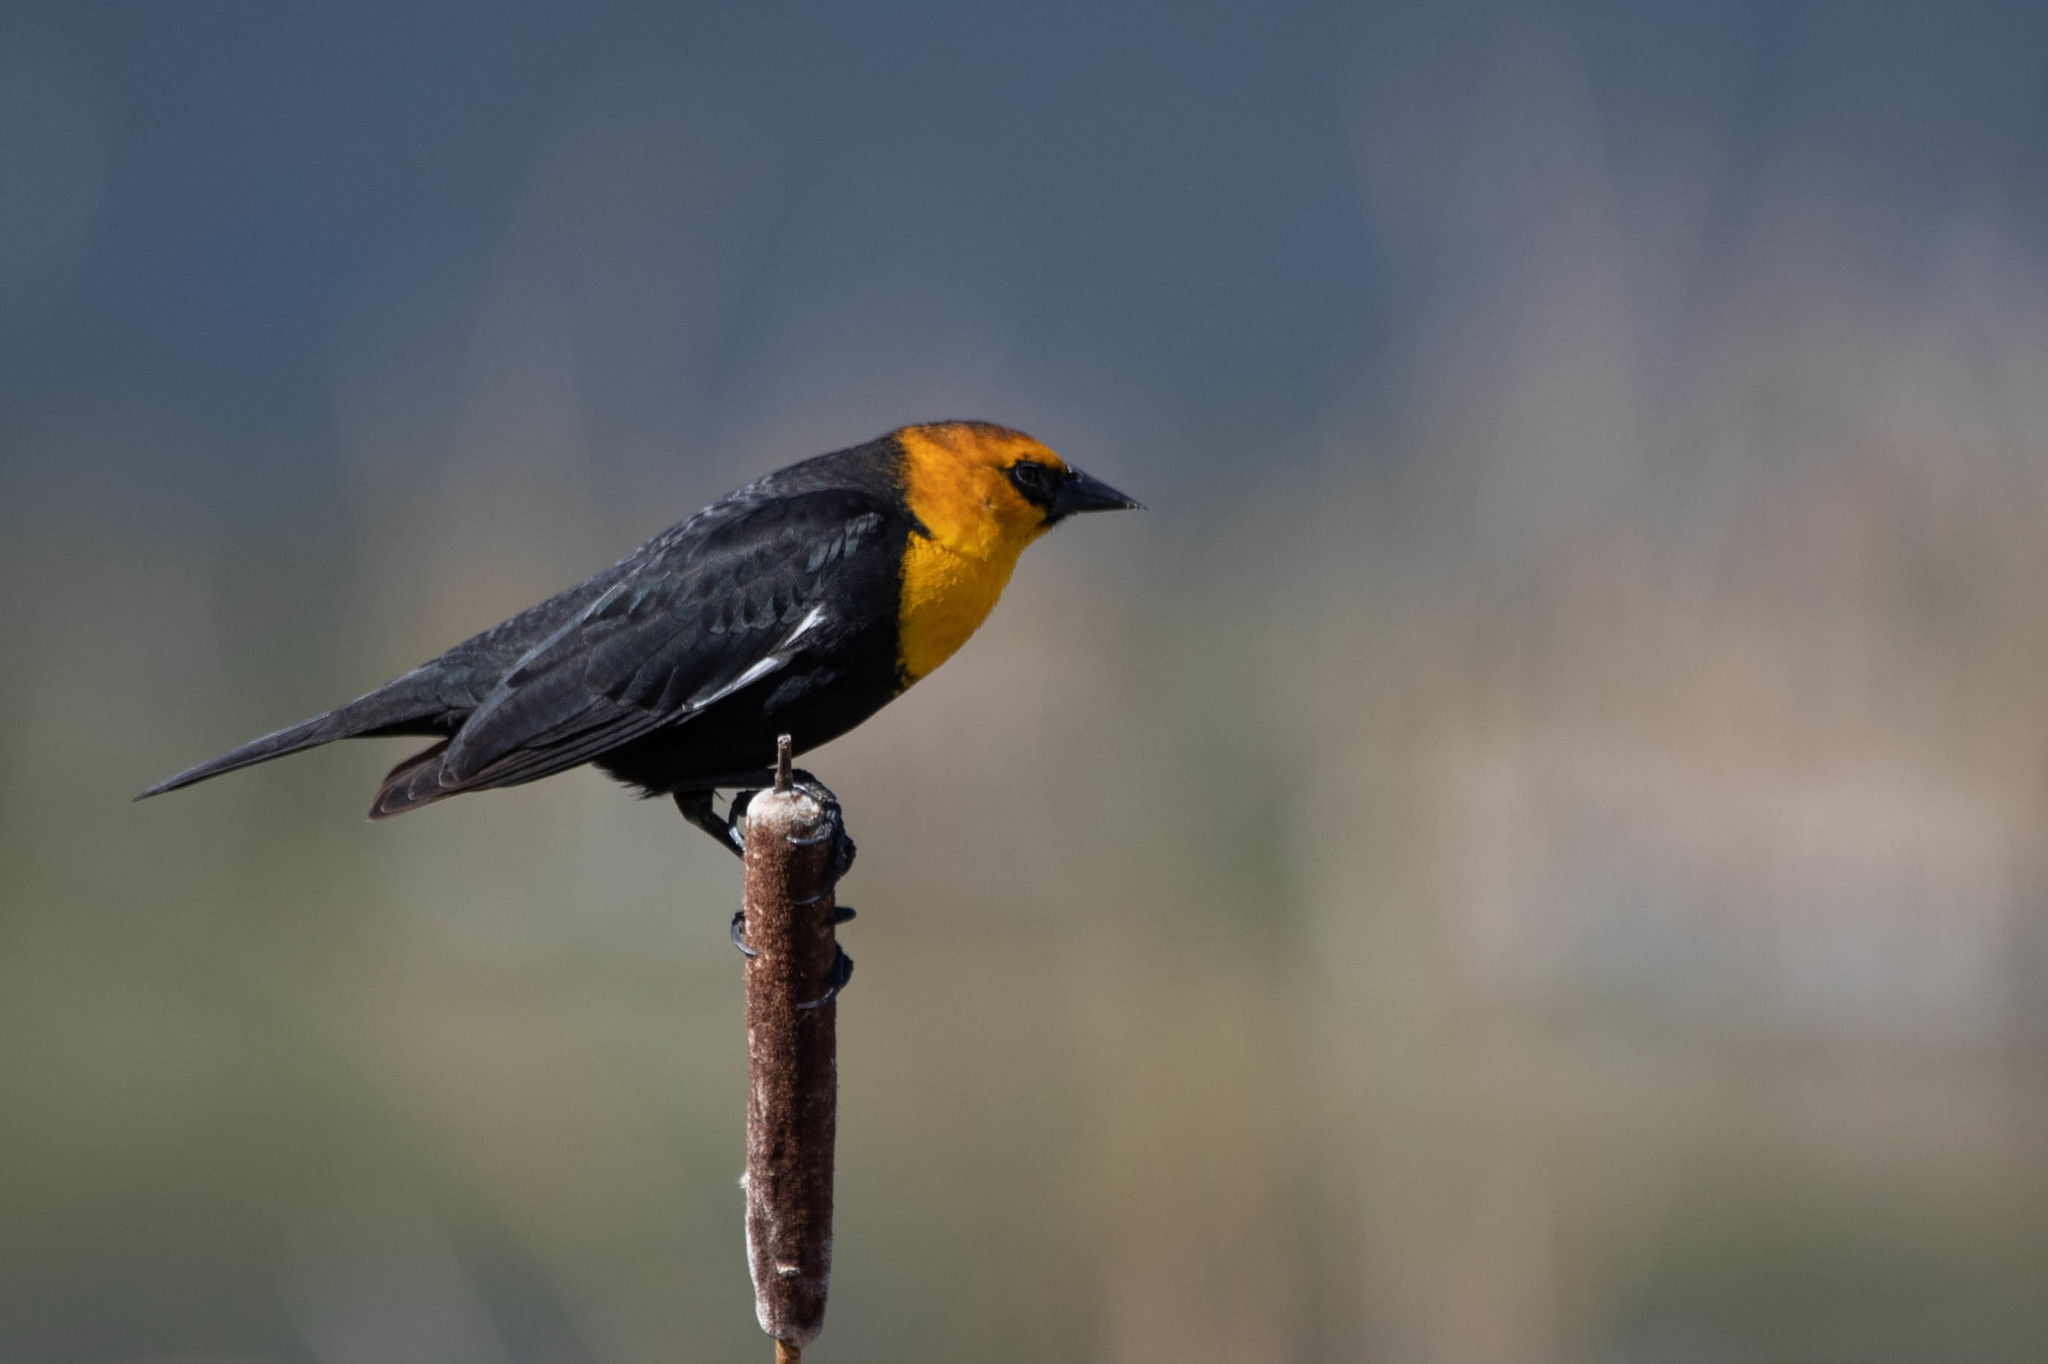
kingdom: Animalia
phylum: Chordata
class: Aves
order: Passeriformes
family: Icteridae
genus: Xanthocephalus
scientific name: Xanthocephalus xanthocephalus
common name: Yellow-headed blackbird
